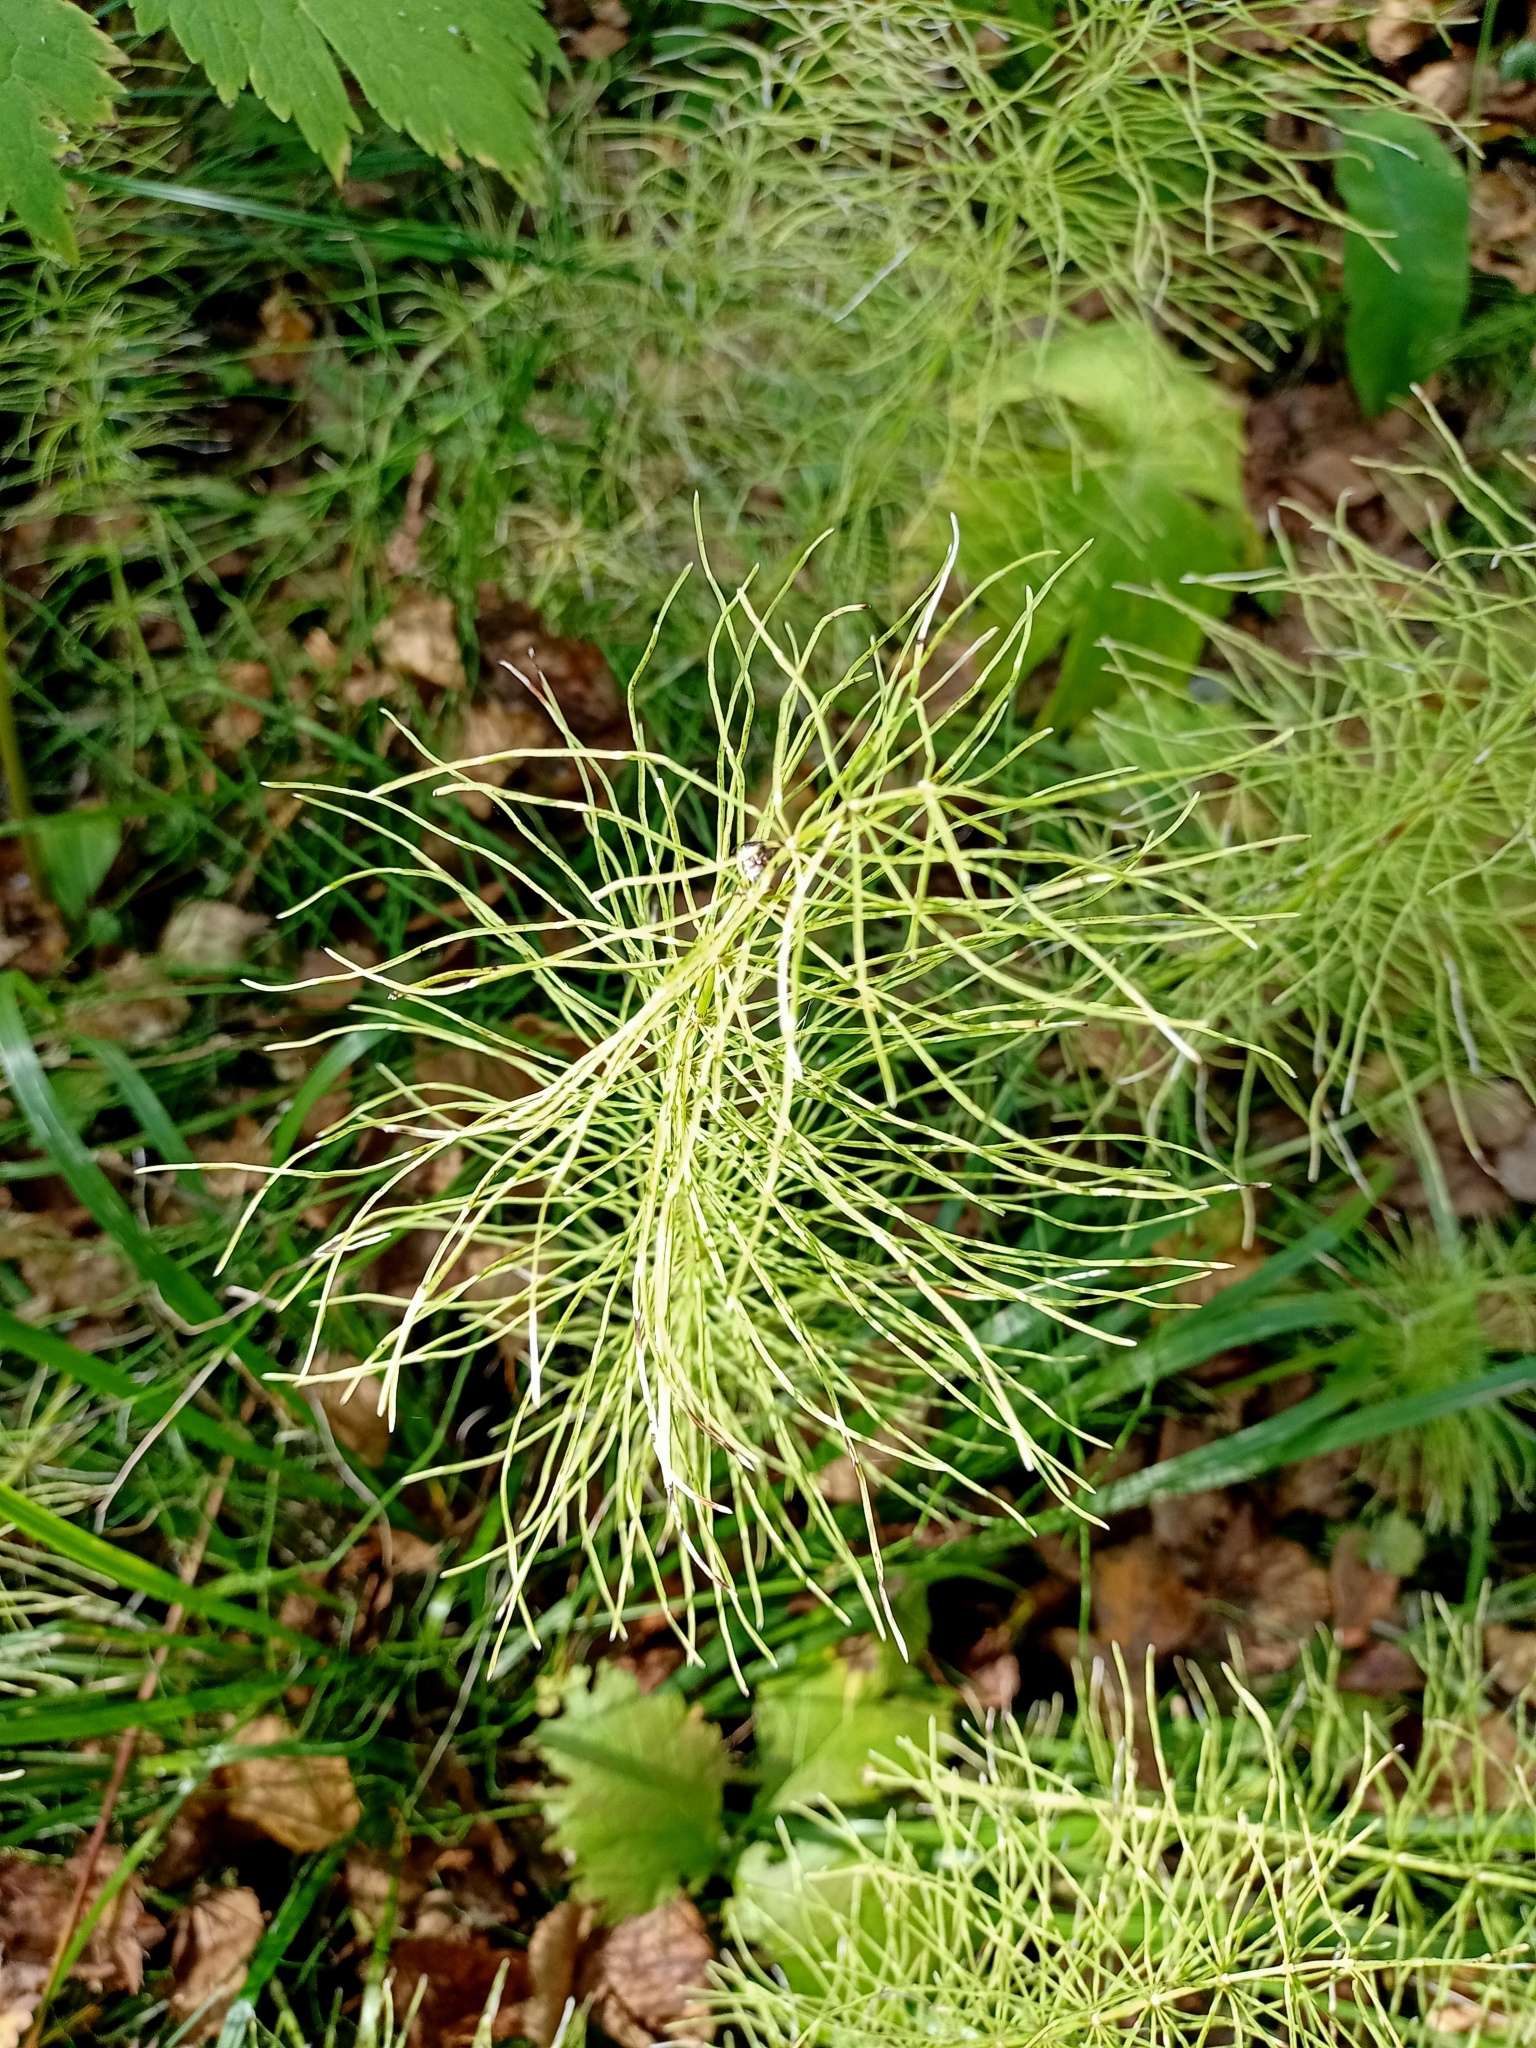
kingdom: Plantae
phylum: Tracheophyta
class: Polypodiopsida
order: Equisetales
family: Equisetaceae
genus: Equisetum
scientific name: Equisetum arvense
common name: Field horsetail
